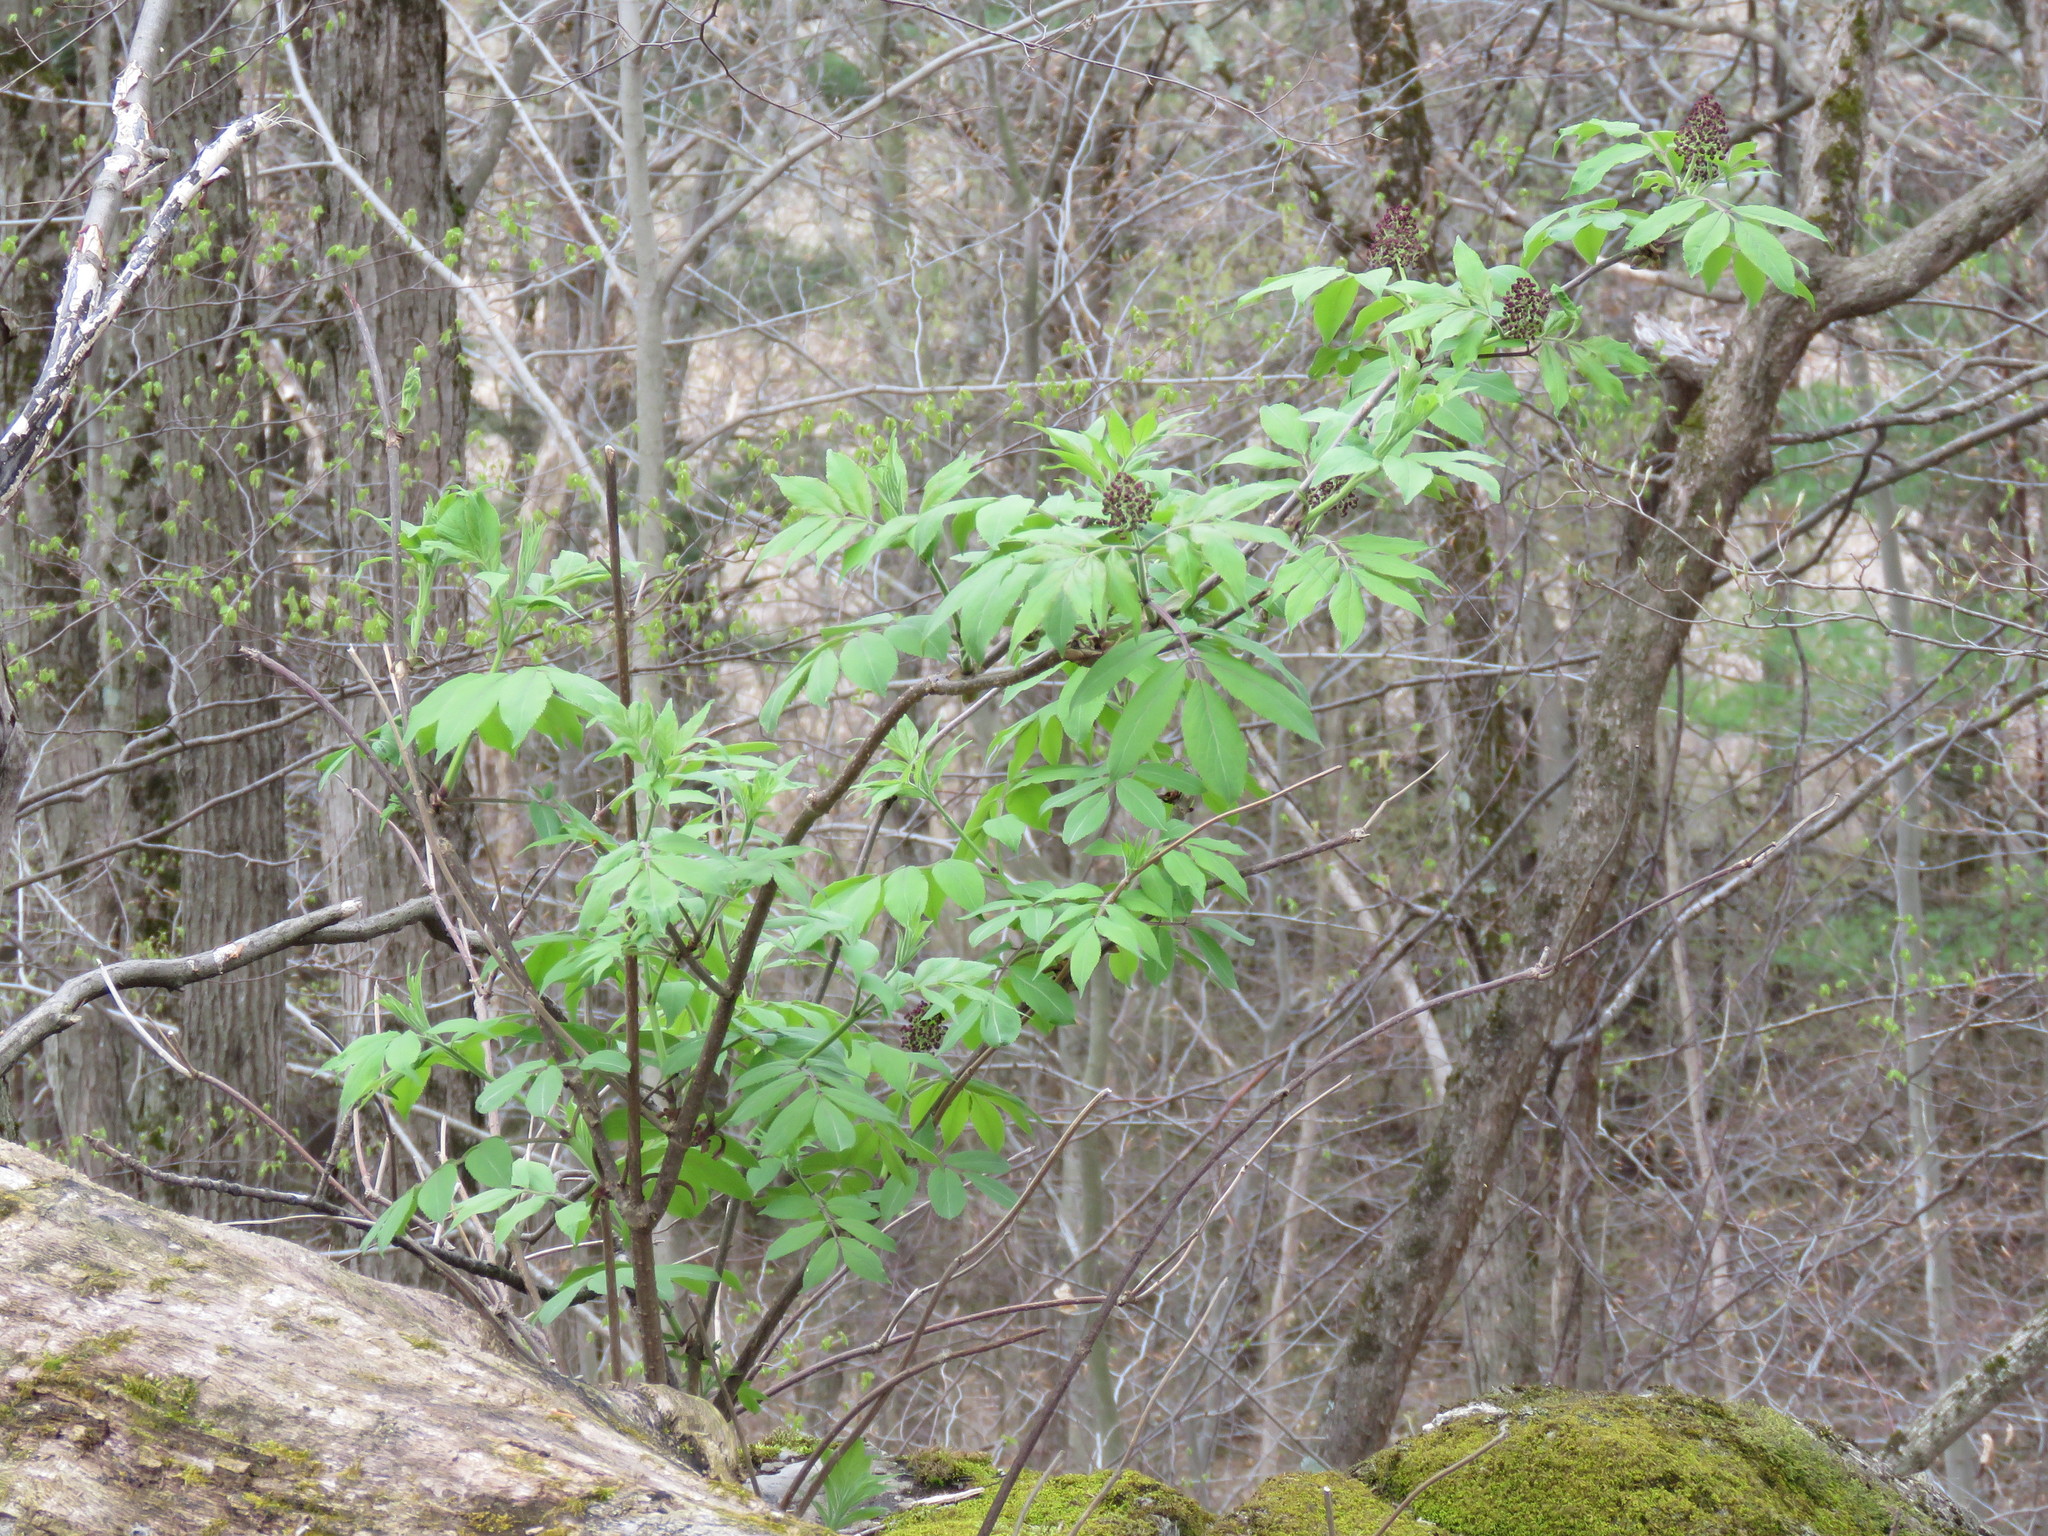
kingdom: Plantae
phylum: Tracheophyta
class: Magnoliopsida
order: Dipsacales
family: Viburnaceae
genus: Sambucus
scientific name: Sambucus racemosa
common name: Red-berried elder
